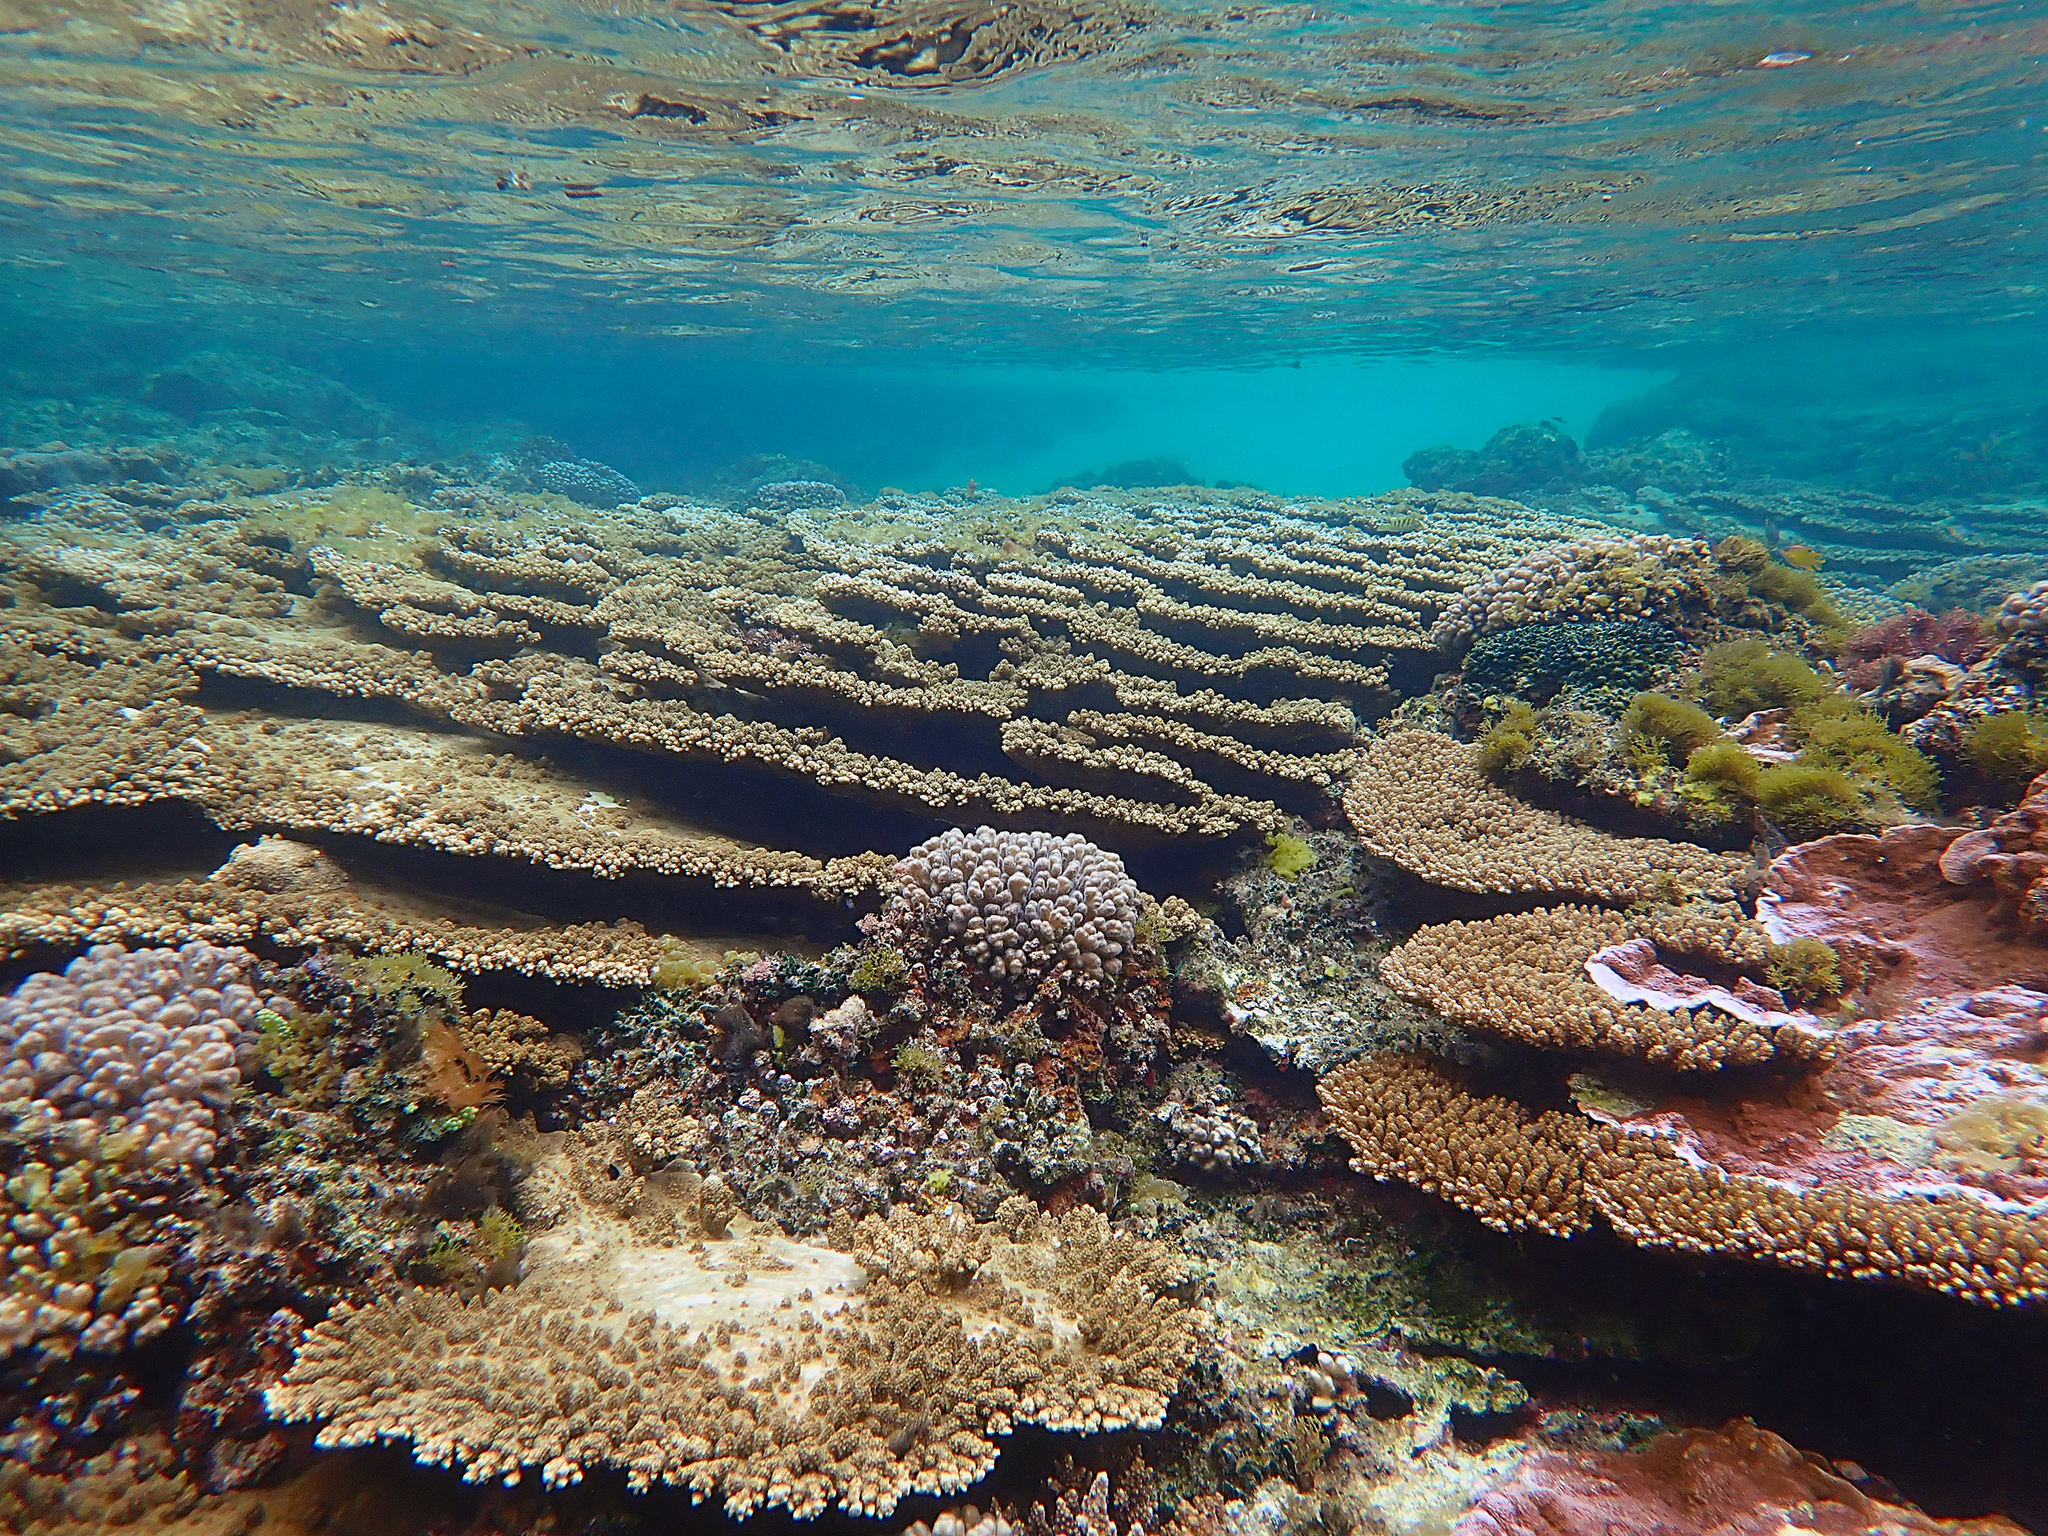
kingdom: Animalia
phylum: Cnidaria
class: Anthozoa
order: Scleractinia
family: Acroporidae
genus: Acropora
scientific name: Acropora solitaryensis
